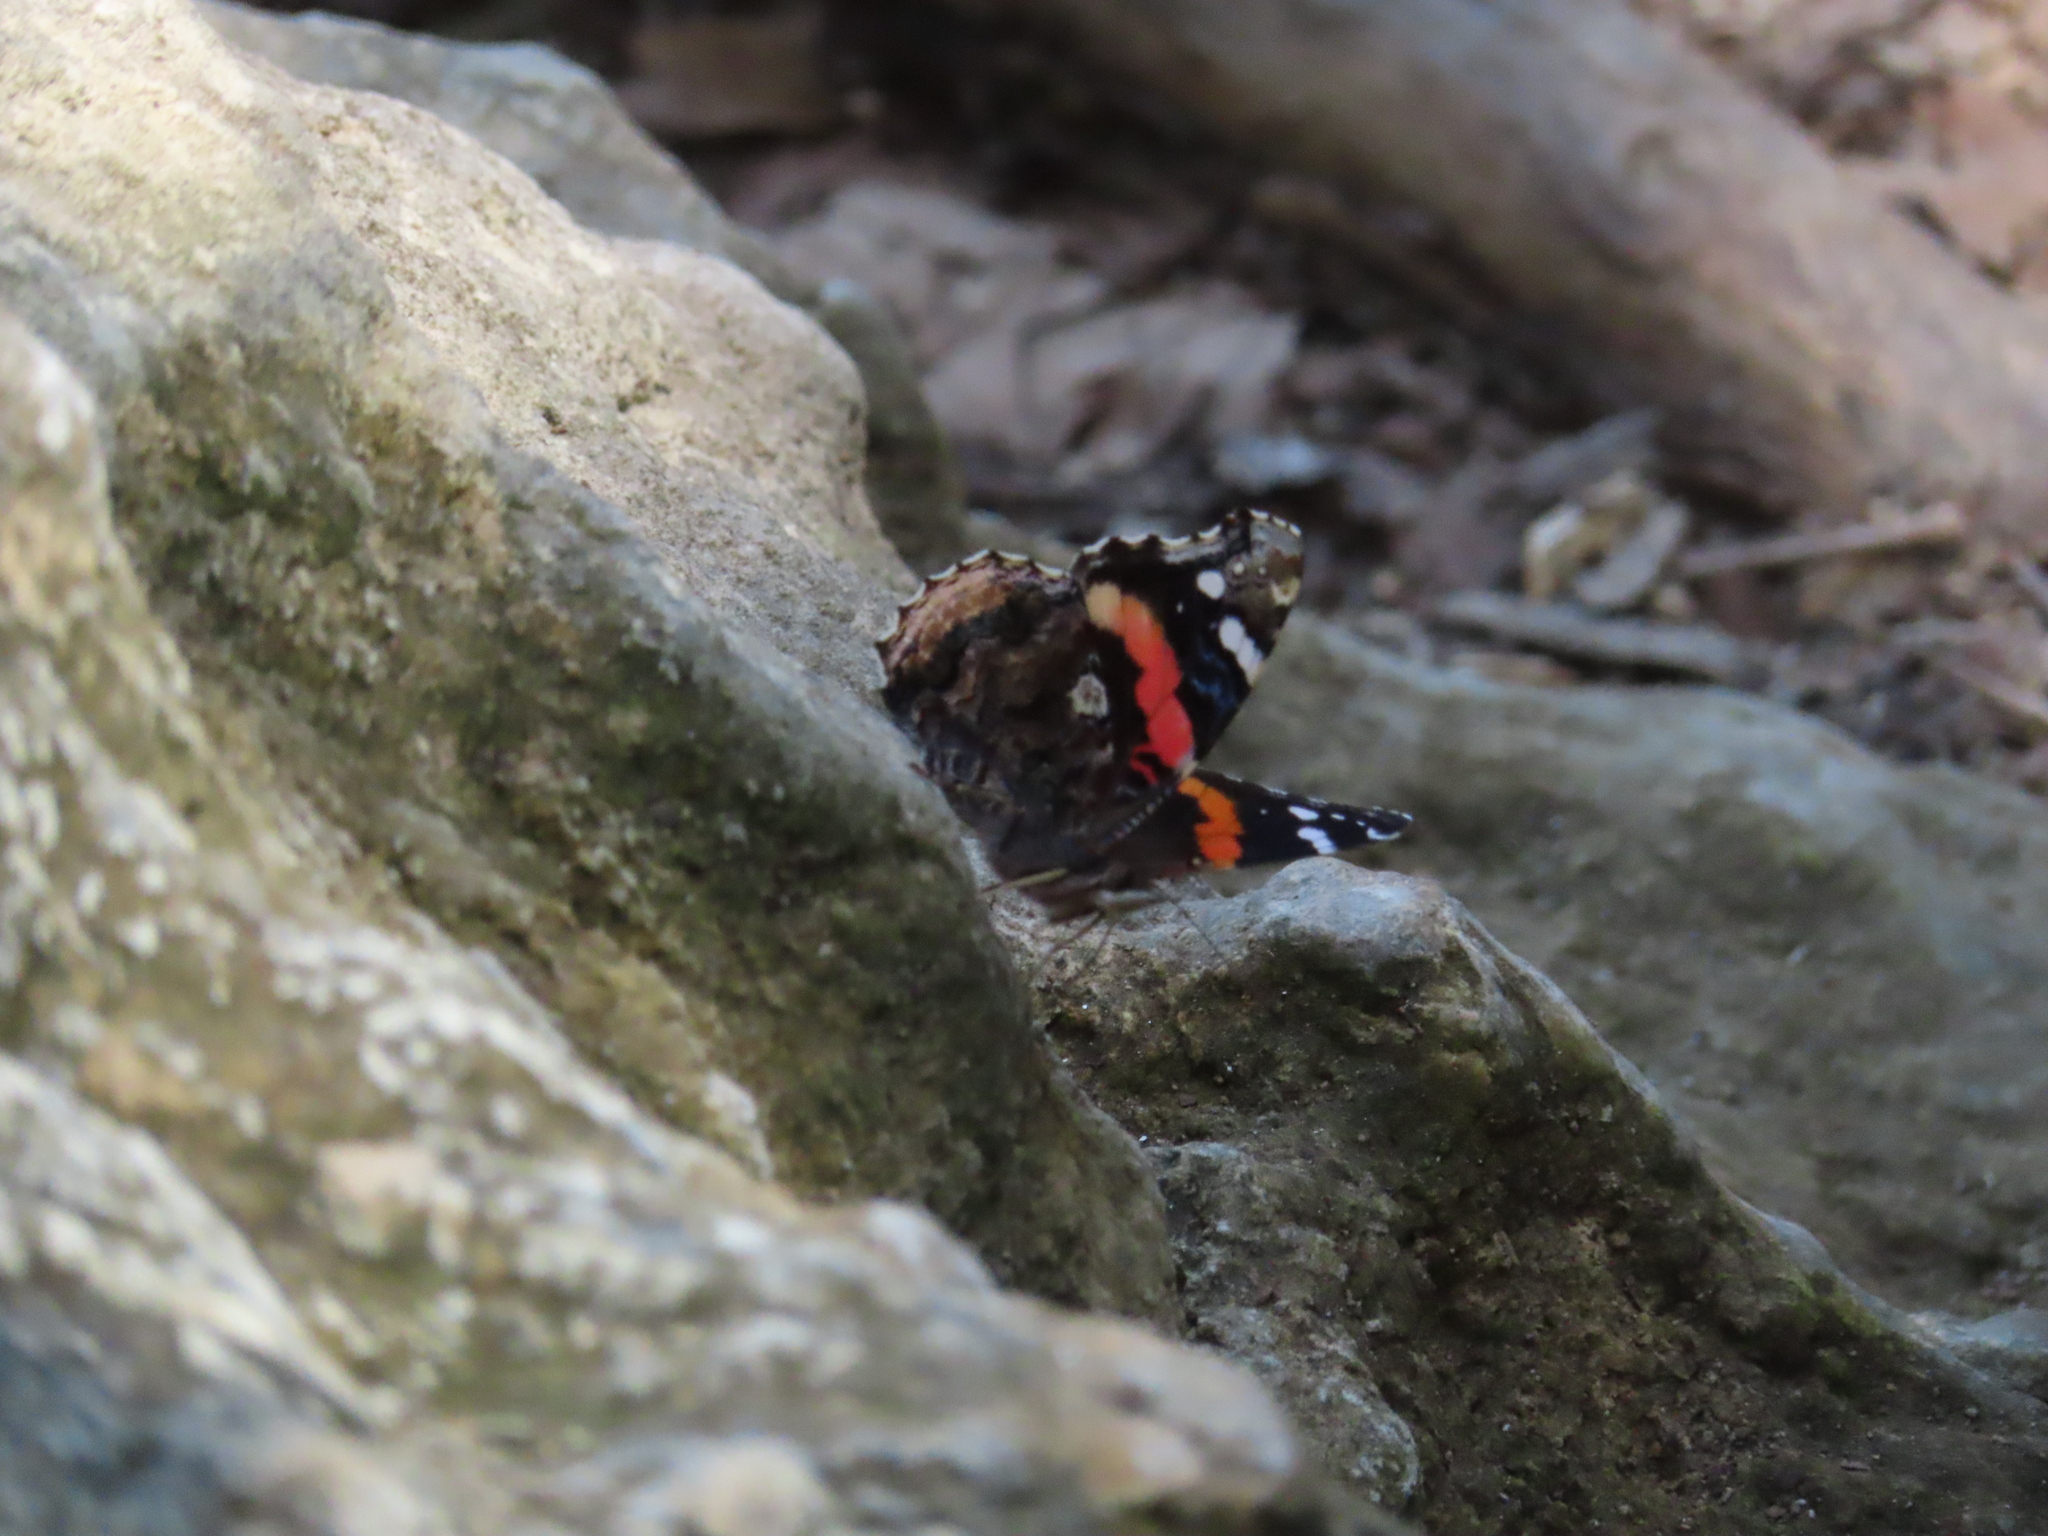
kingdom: Animalia
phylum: Arthropoda
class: Insecta
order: Lepidoptera
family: Nymphalidae
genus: Vanessa
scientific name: Vanessa atalanta
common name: Red admiral
